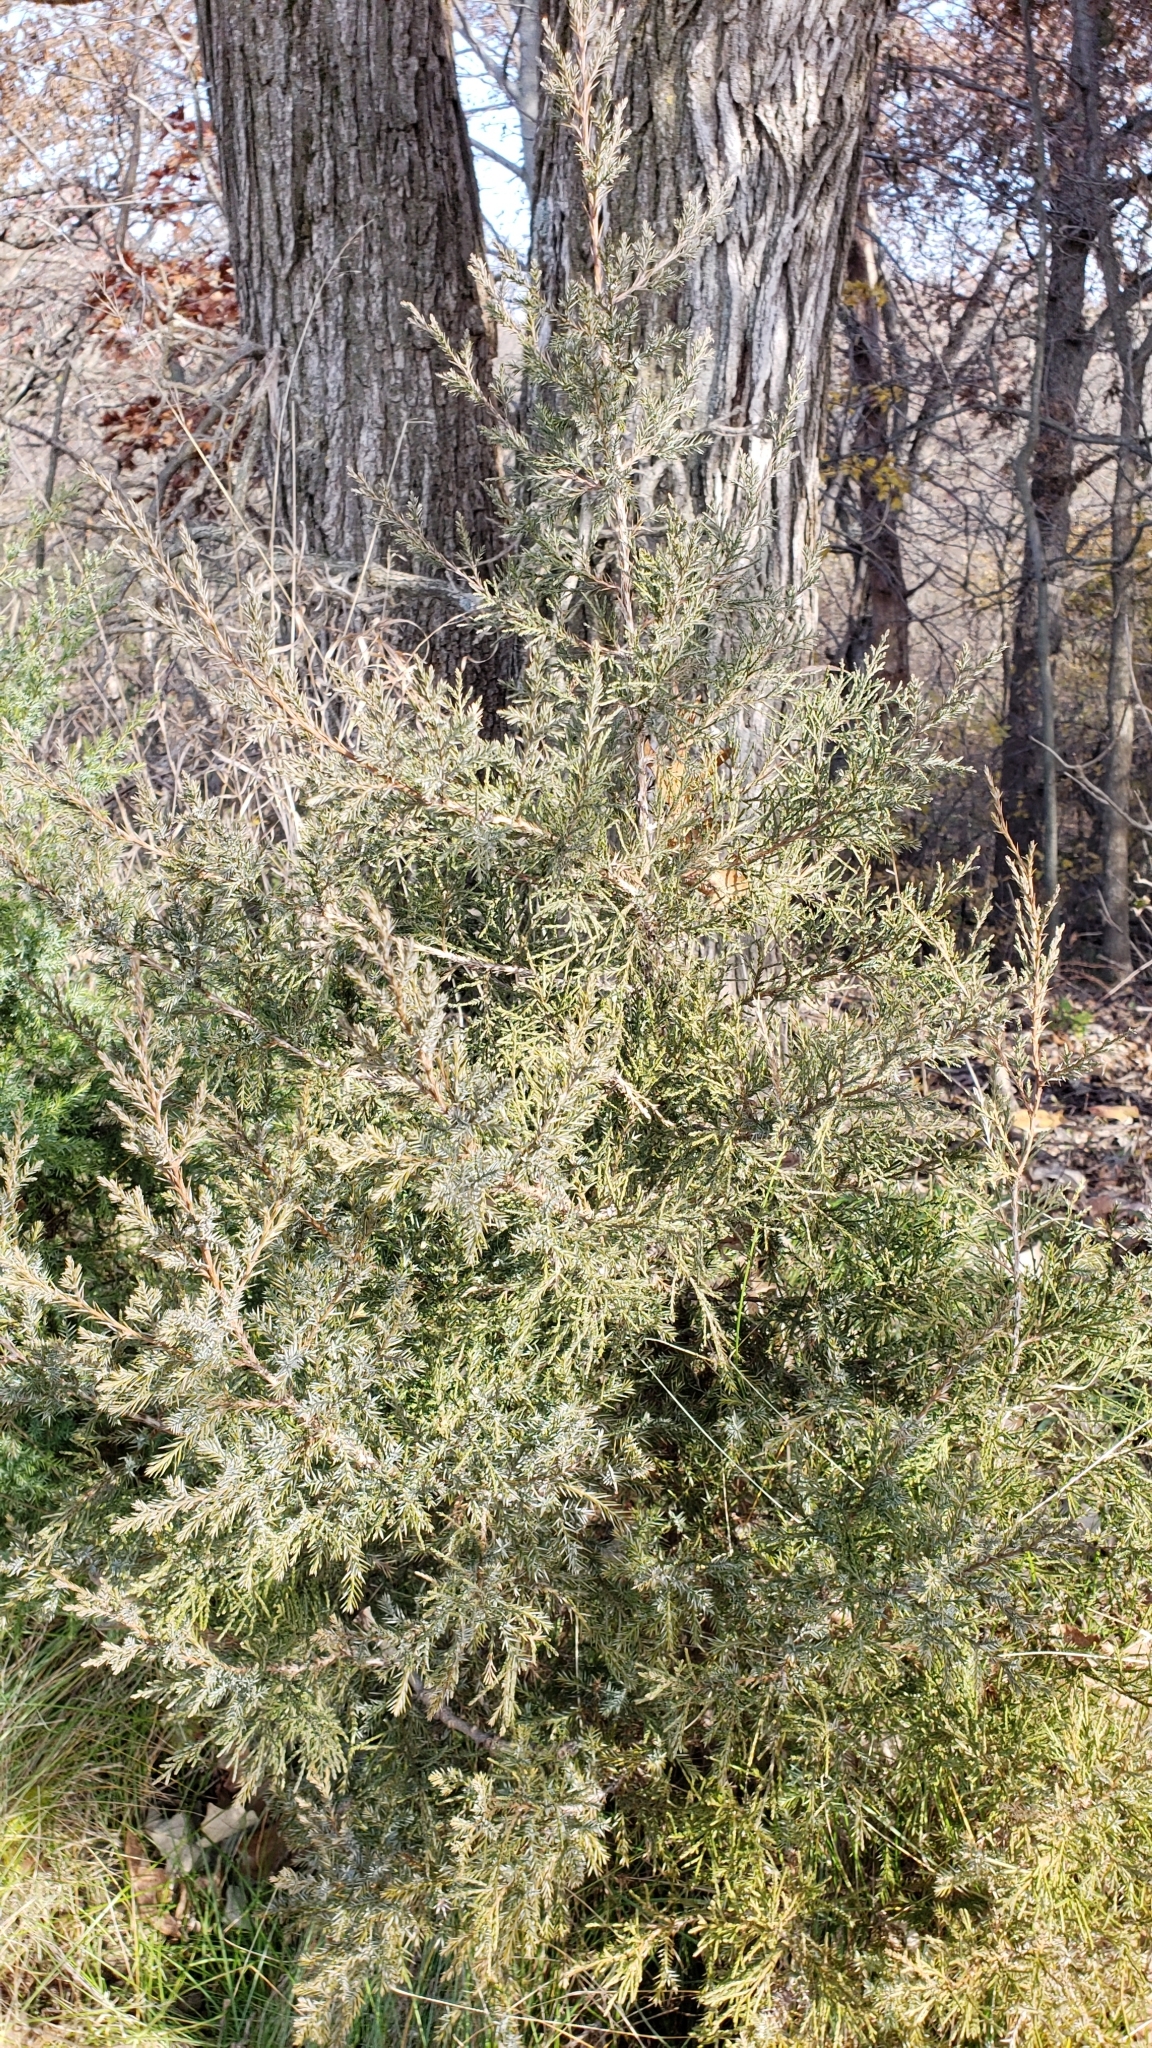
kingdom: Plantae
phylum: Tracheophyta
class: Pinopsida
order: Pinales
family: Cupressaceae
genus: Juniperus
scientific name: Juniperus virginiana
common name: Red juniper
